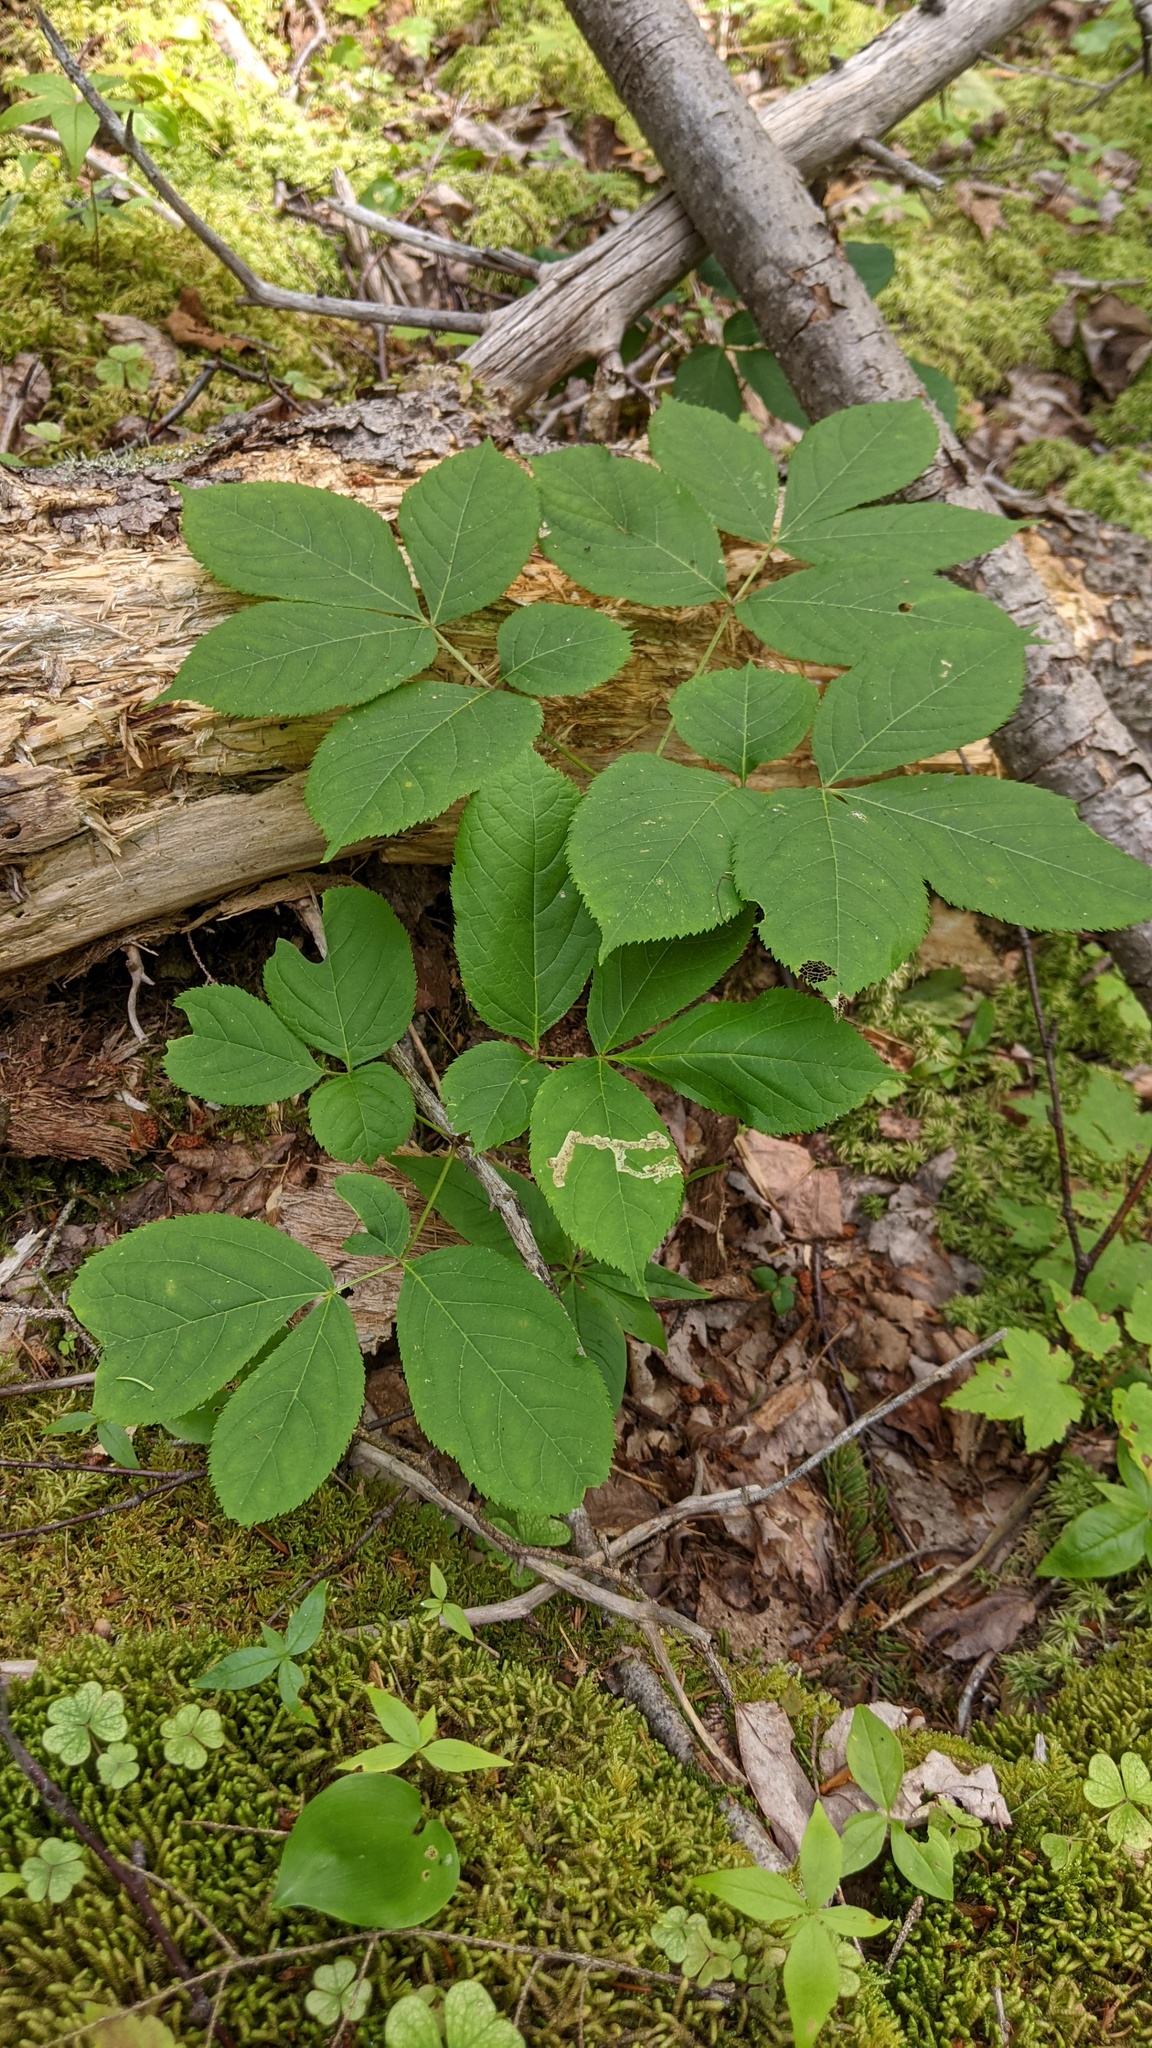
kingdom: Animalia
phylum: Arthropoda
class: Insecta
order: Diptera
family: Agromyzidae
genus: Phytomyza
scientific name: Phytomyza aralivora
